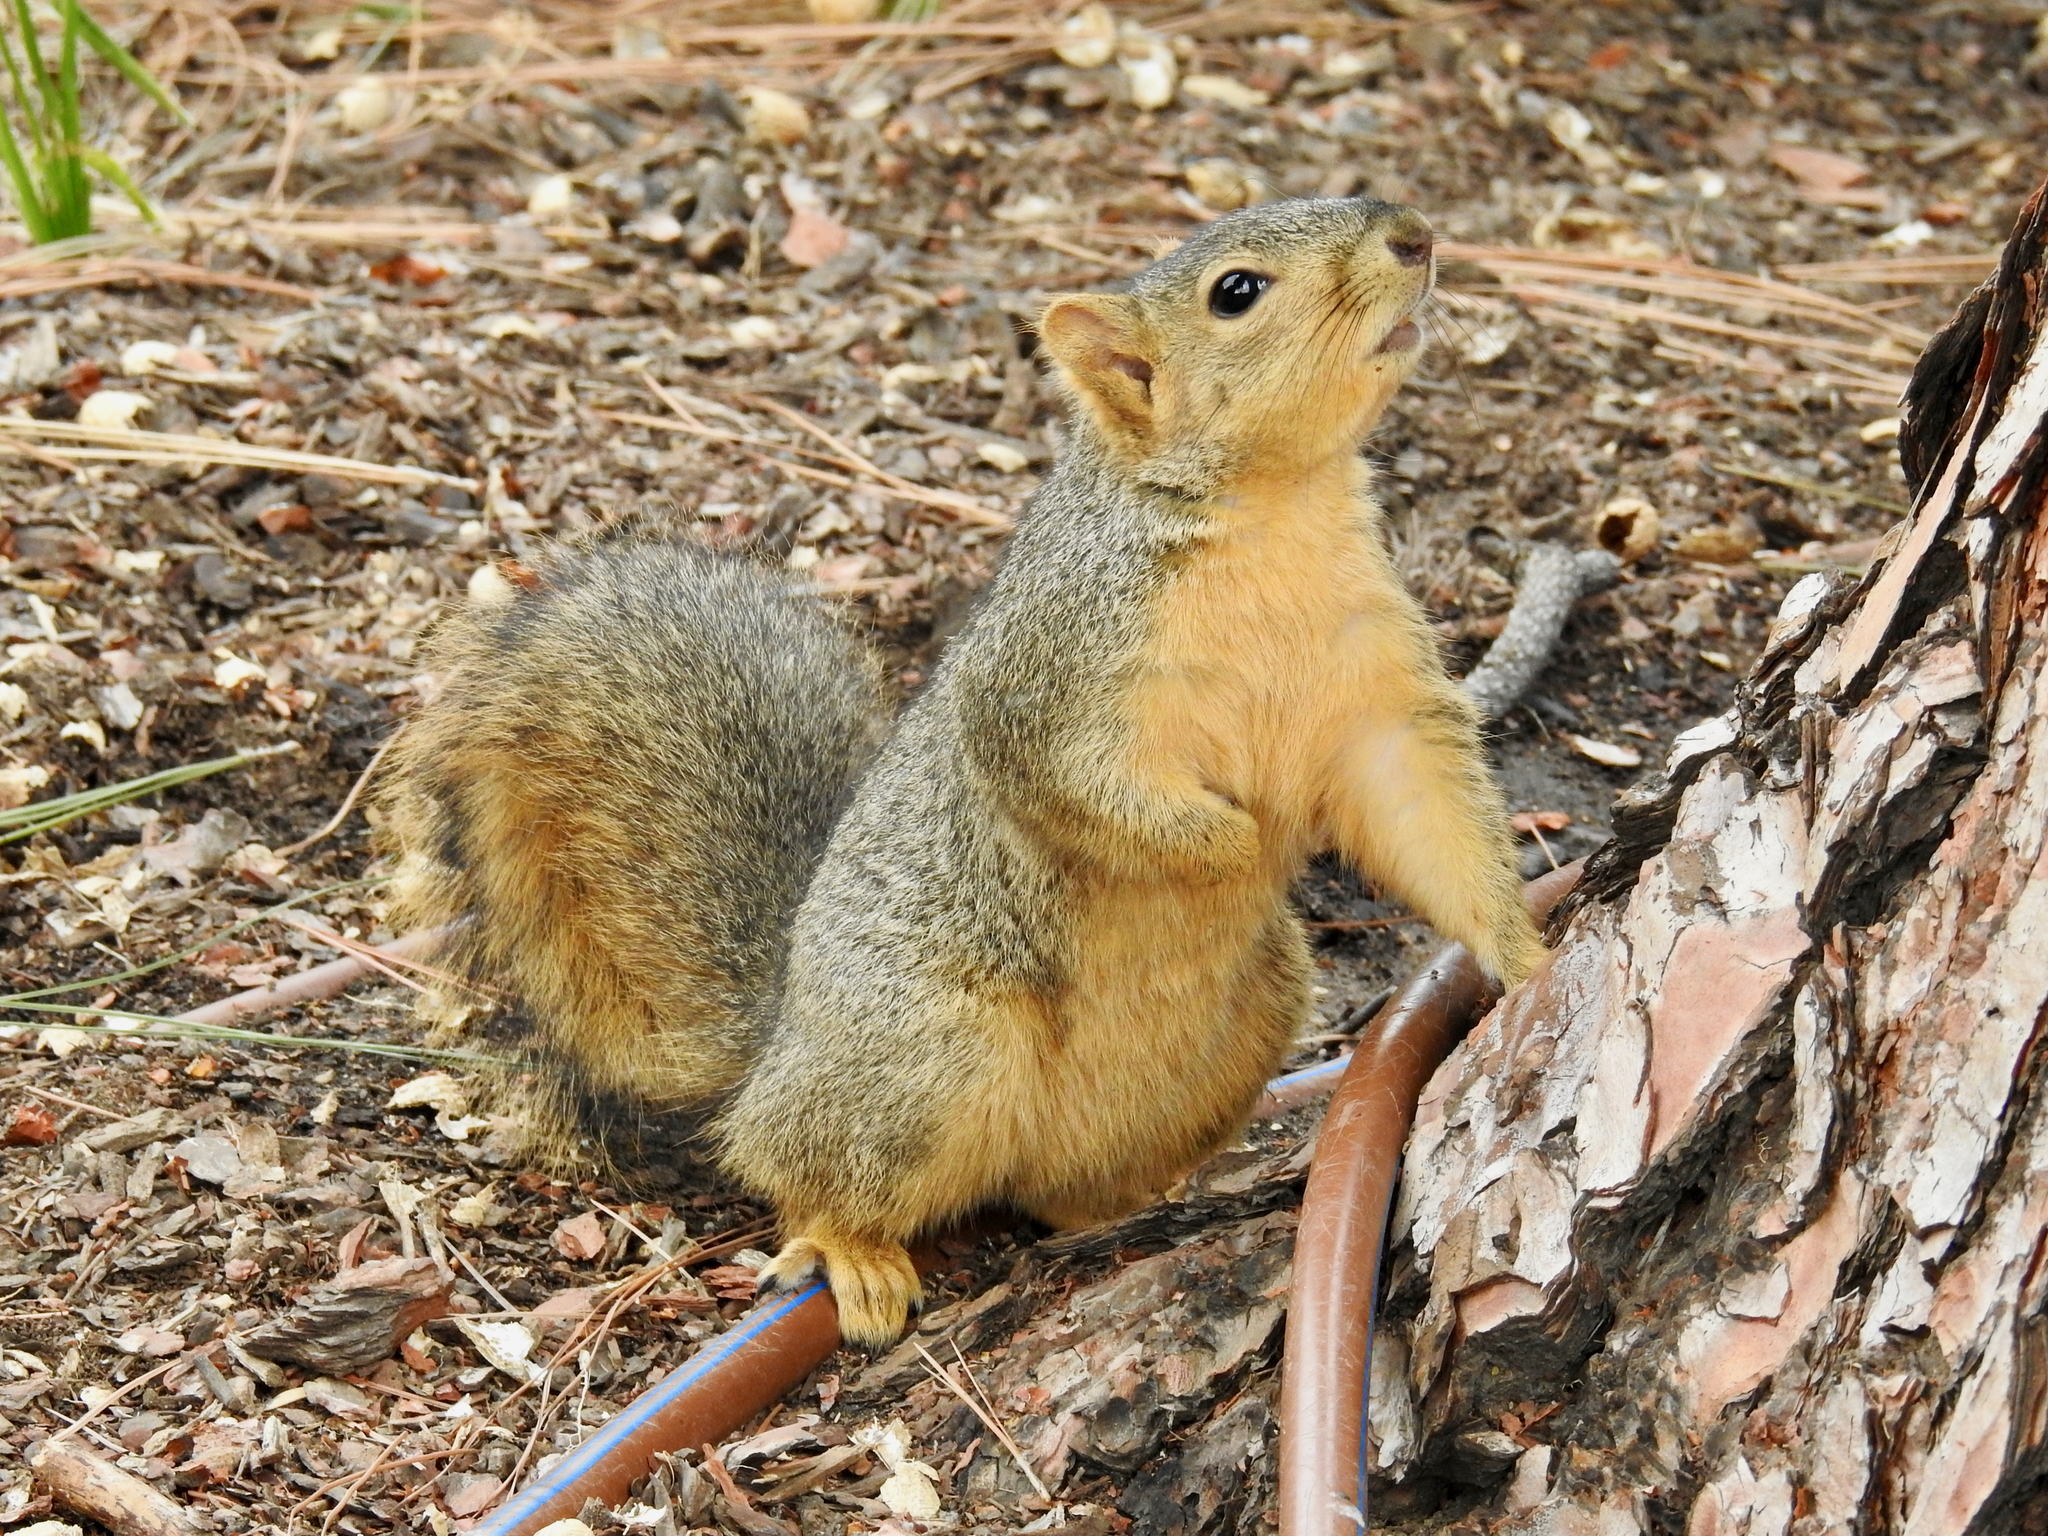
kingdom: Animalia
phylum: Chordata
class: Mammalia
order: Rodentia
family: Sciuridae
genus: Sciurus
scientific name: Sciurus niger
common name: Fox squirrel
